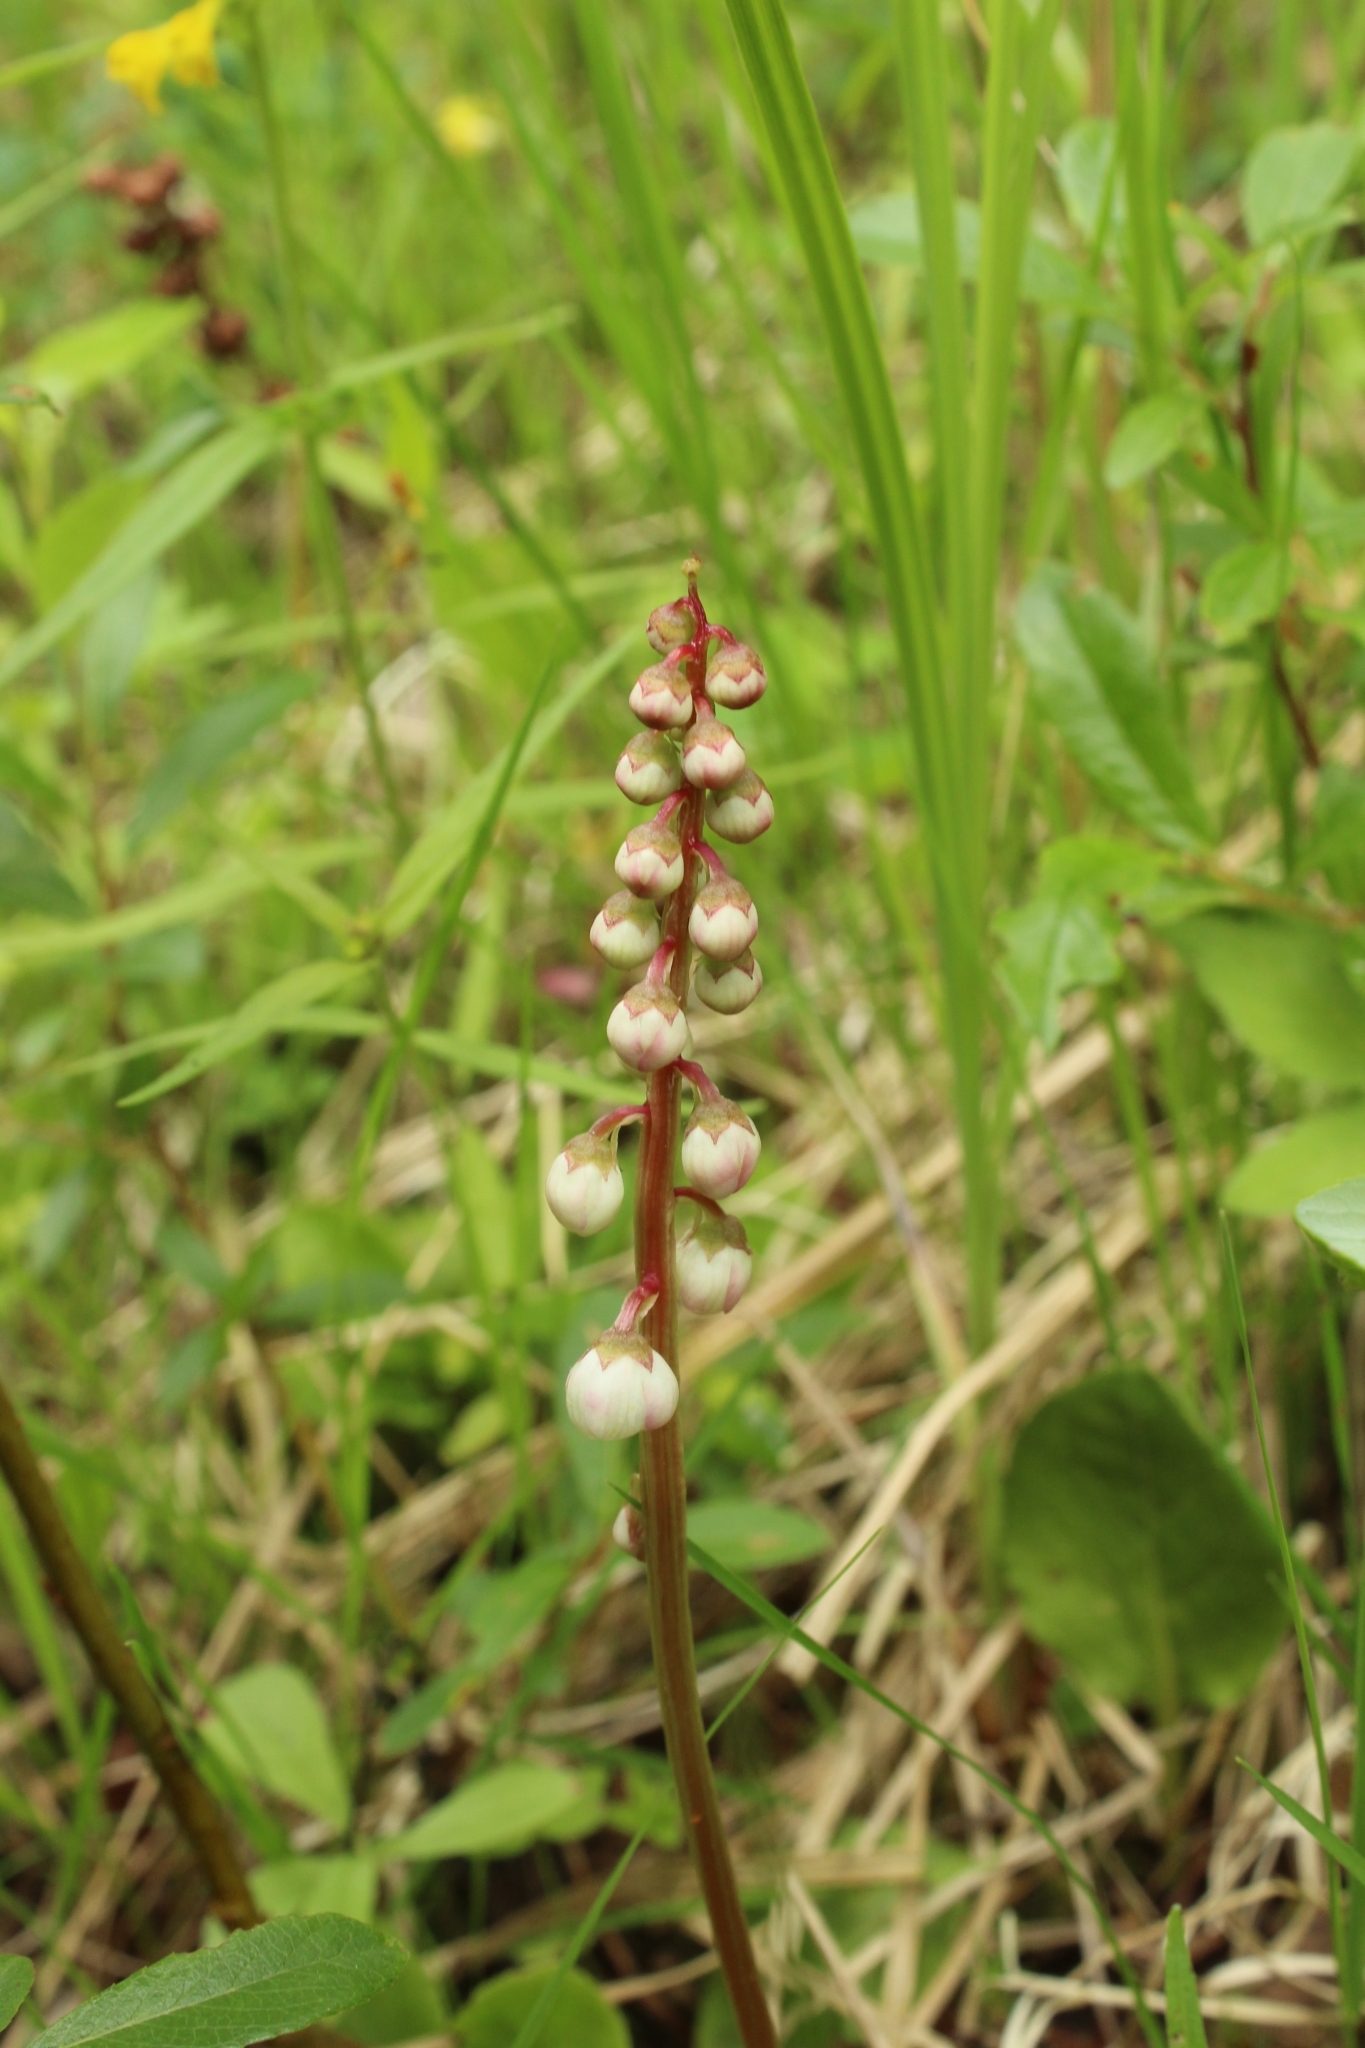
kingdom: Plantae
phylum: Tracheophyta
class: Magnoliopsida
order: Ericales
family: Ericaceae
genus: Pyrola
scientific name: Pyrola minor
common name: Common wintergreen
